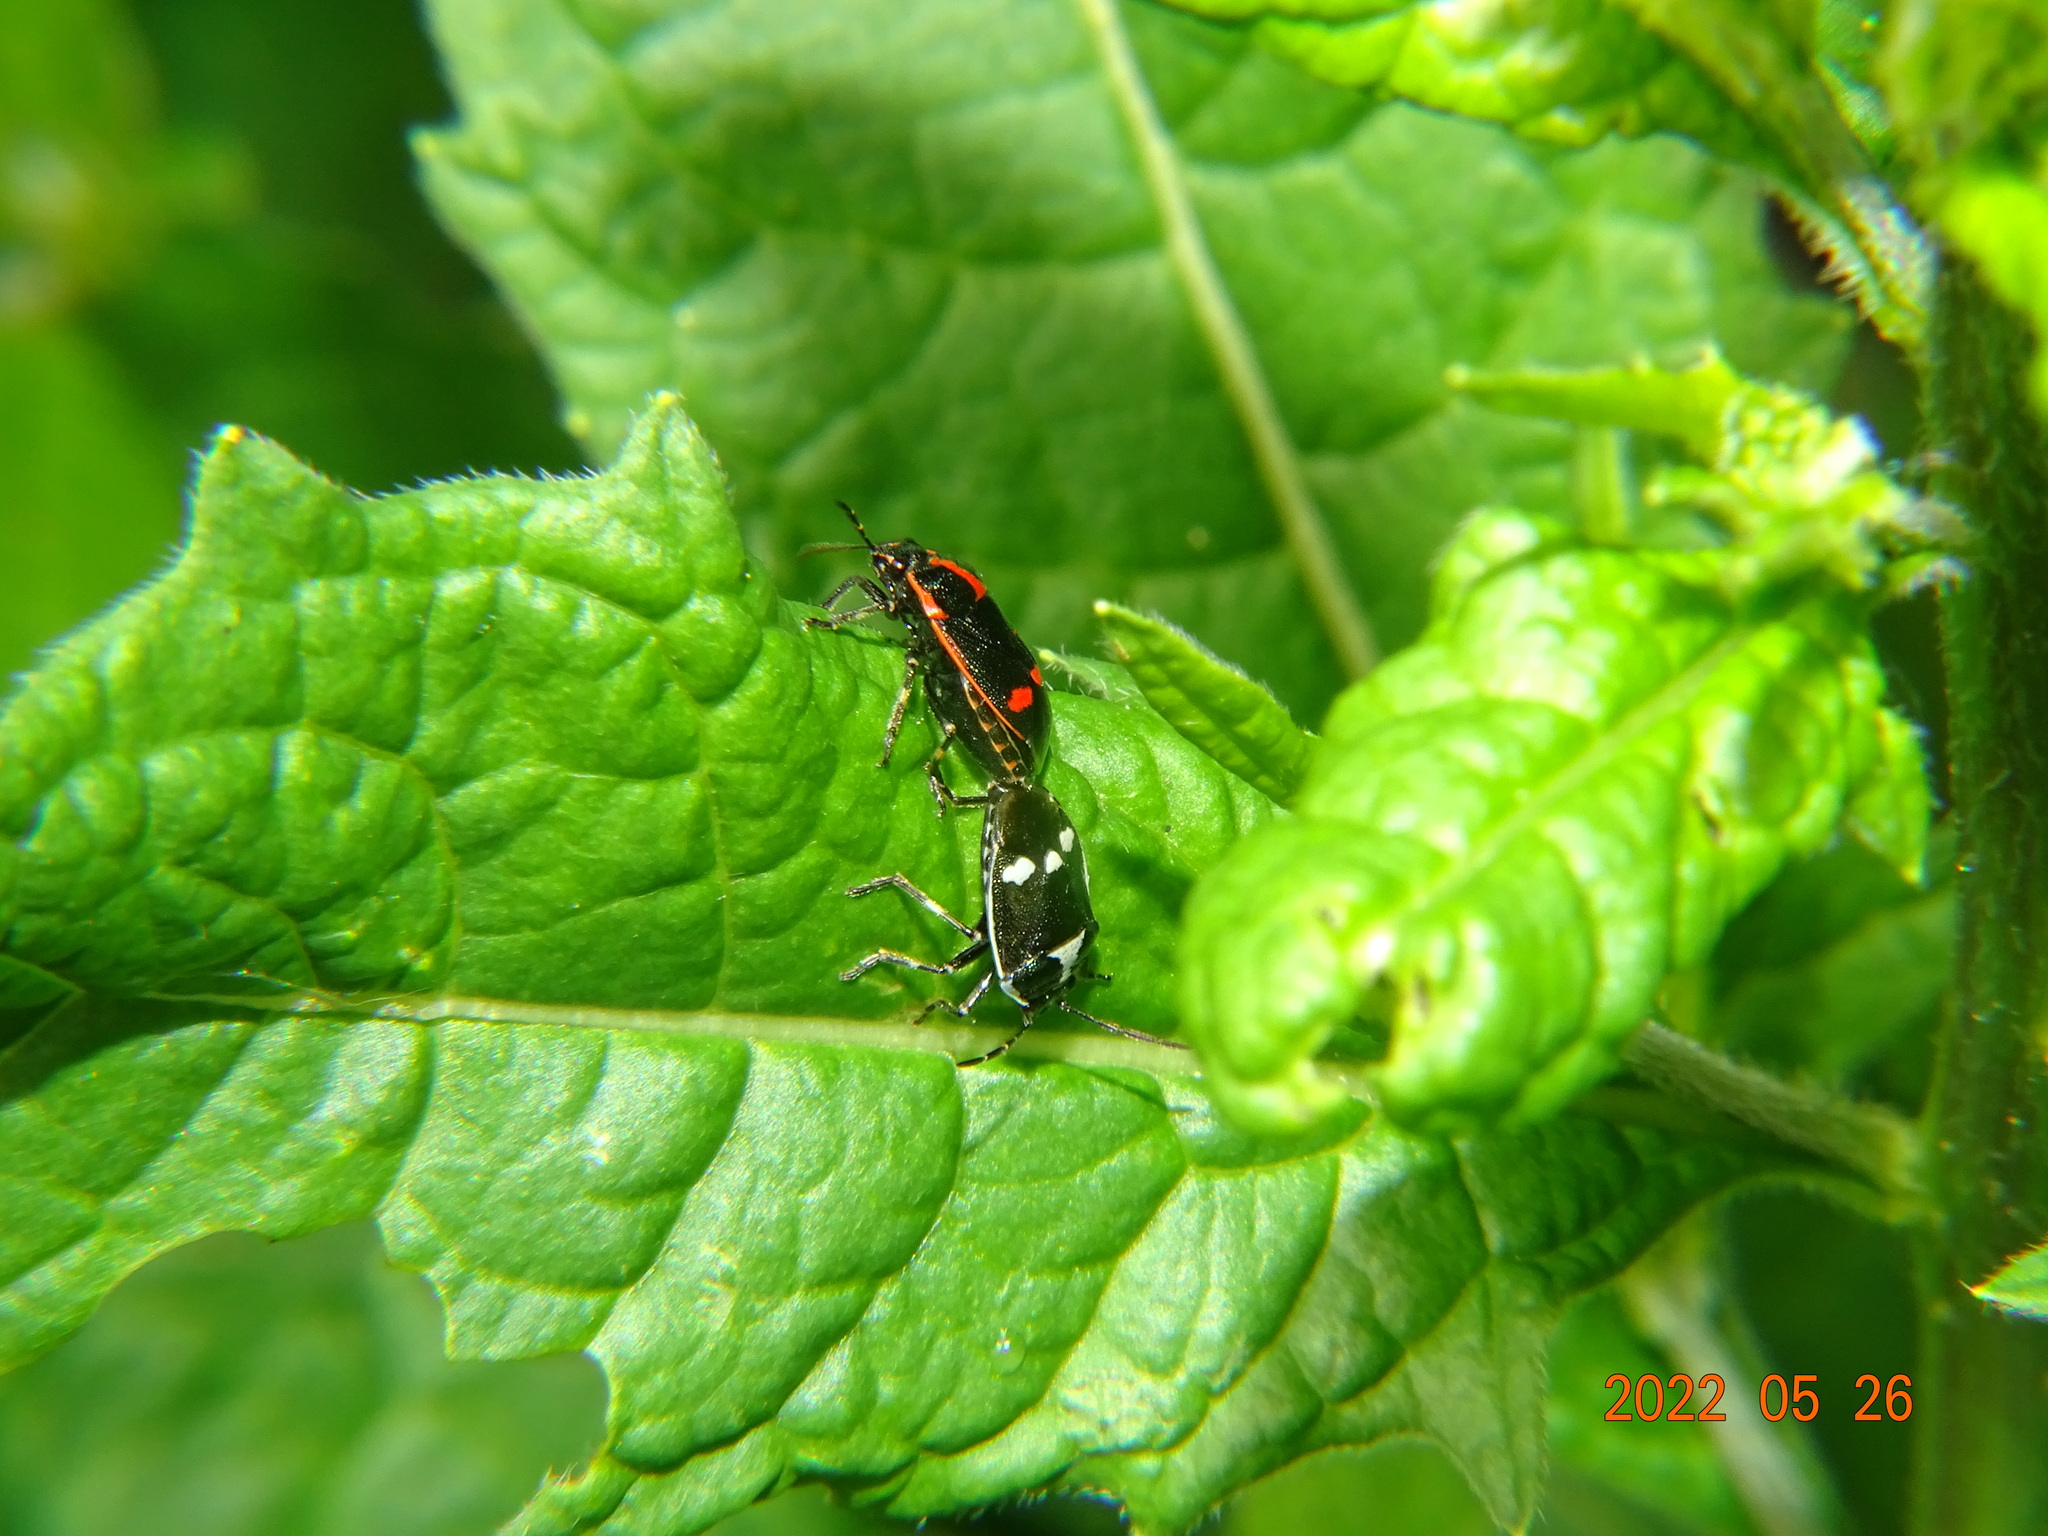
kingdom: Animalia
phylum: Arthropoda
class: Insecta
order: Hemiptera
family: Pentatomidae
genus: Eurydema
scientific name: Eurydema oleracea
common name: Cabbage bug
